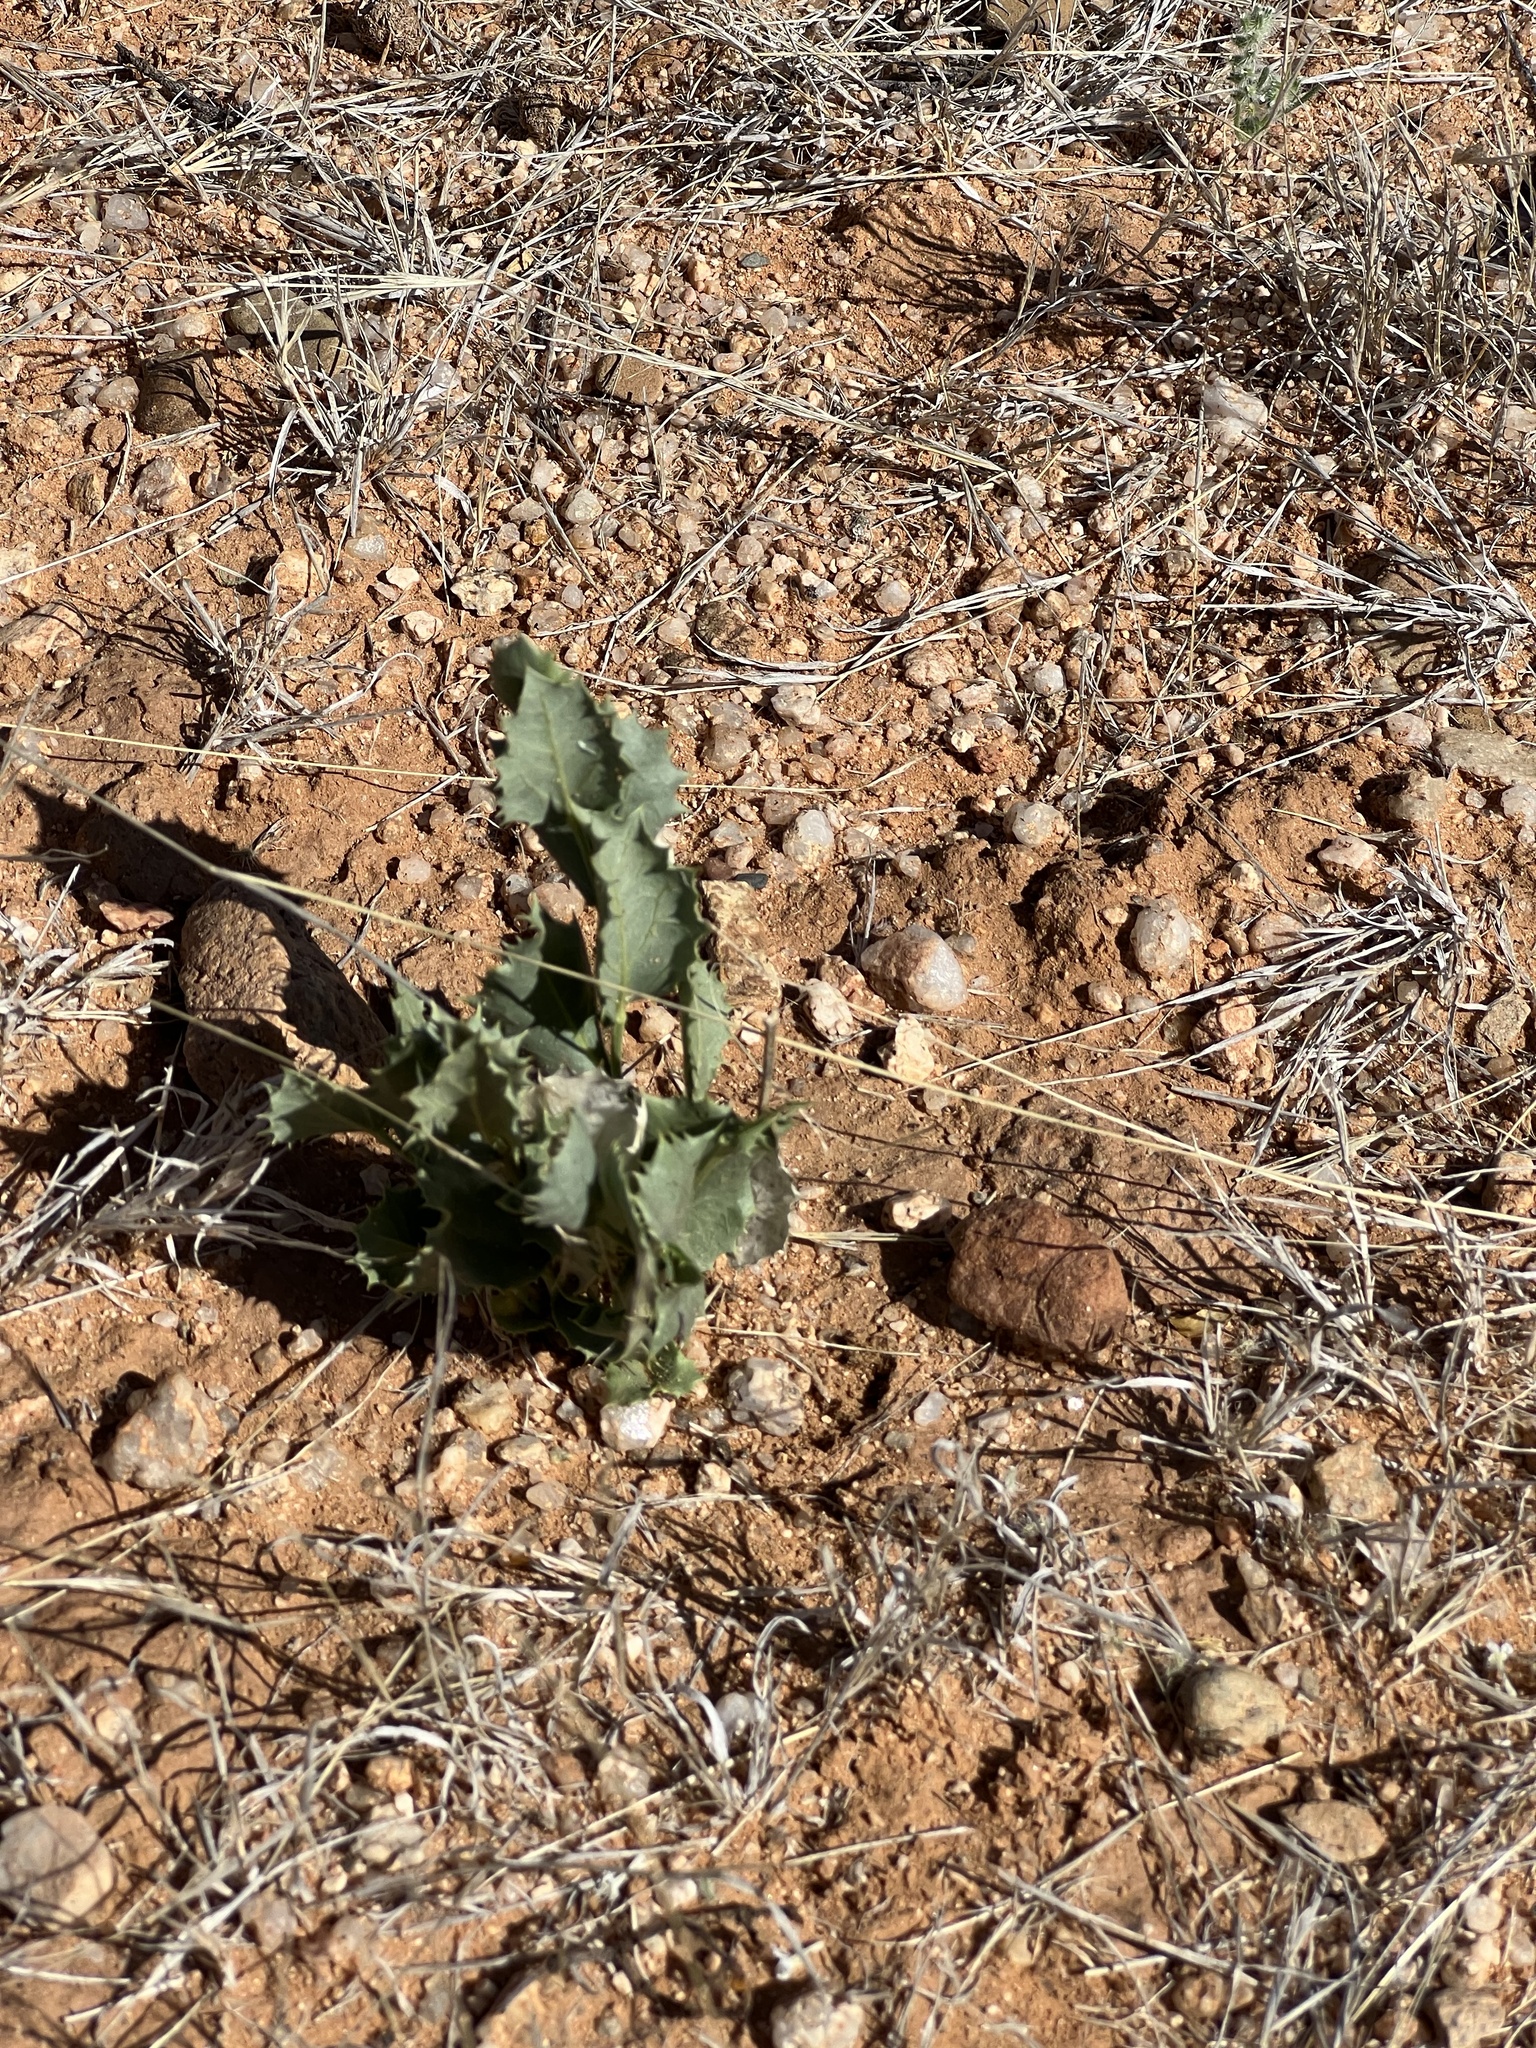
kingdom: Plantae
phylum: Tracheophyta
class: Magnoliopsida
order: Asterales
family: Asteraceae
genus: Acourtia
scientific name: Acourtia nana
